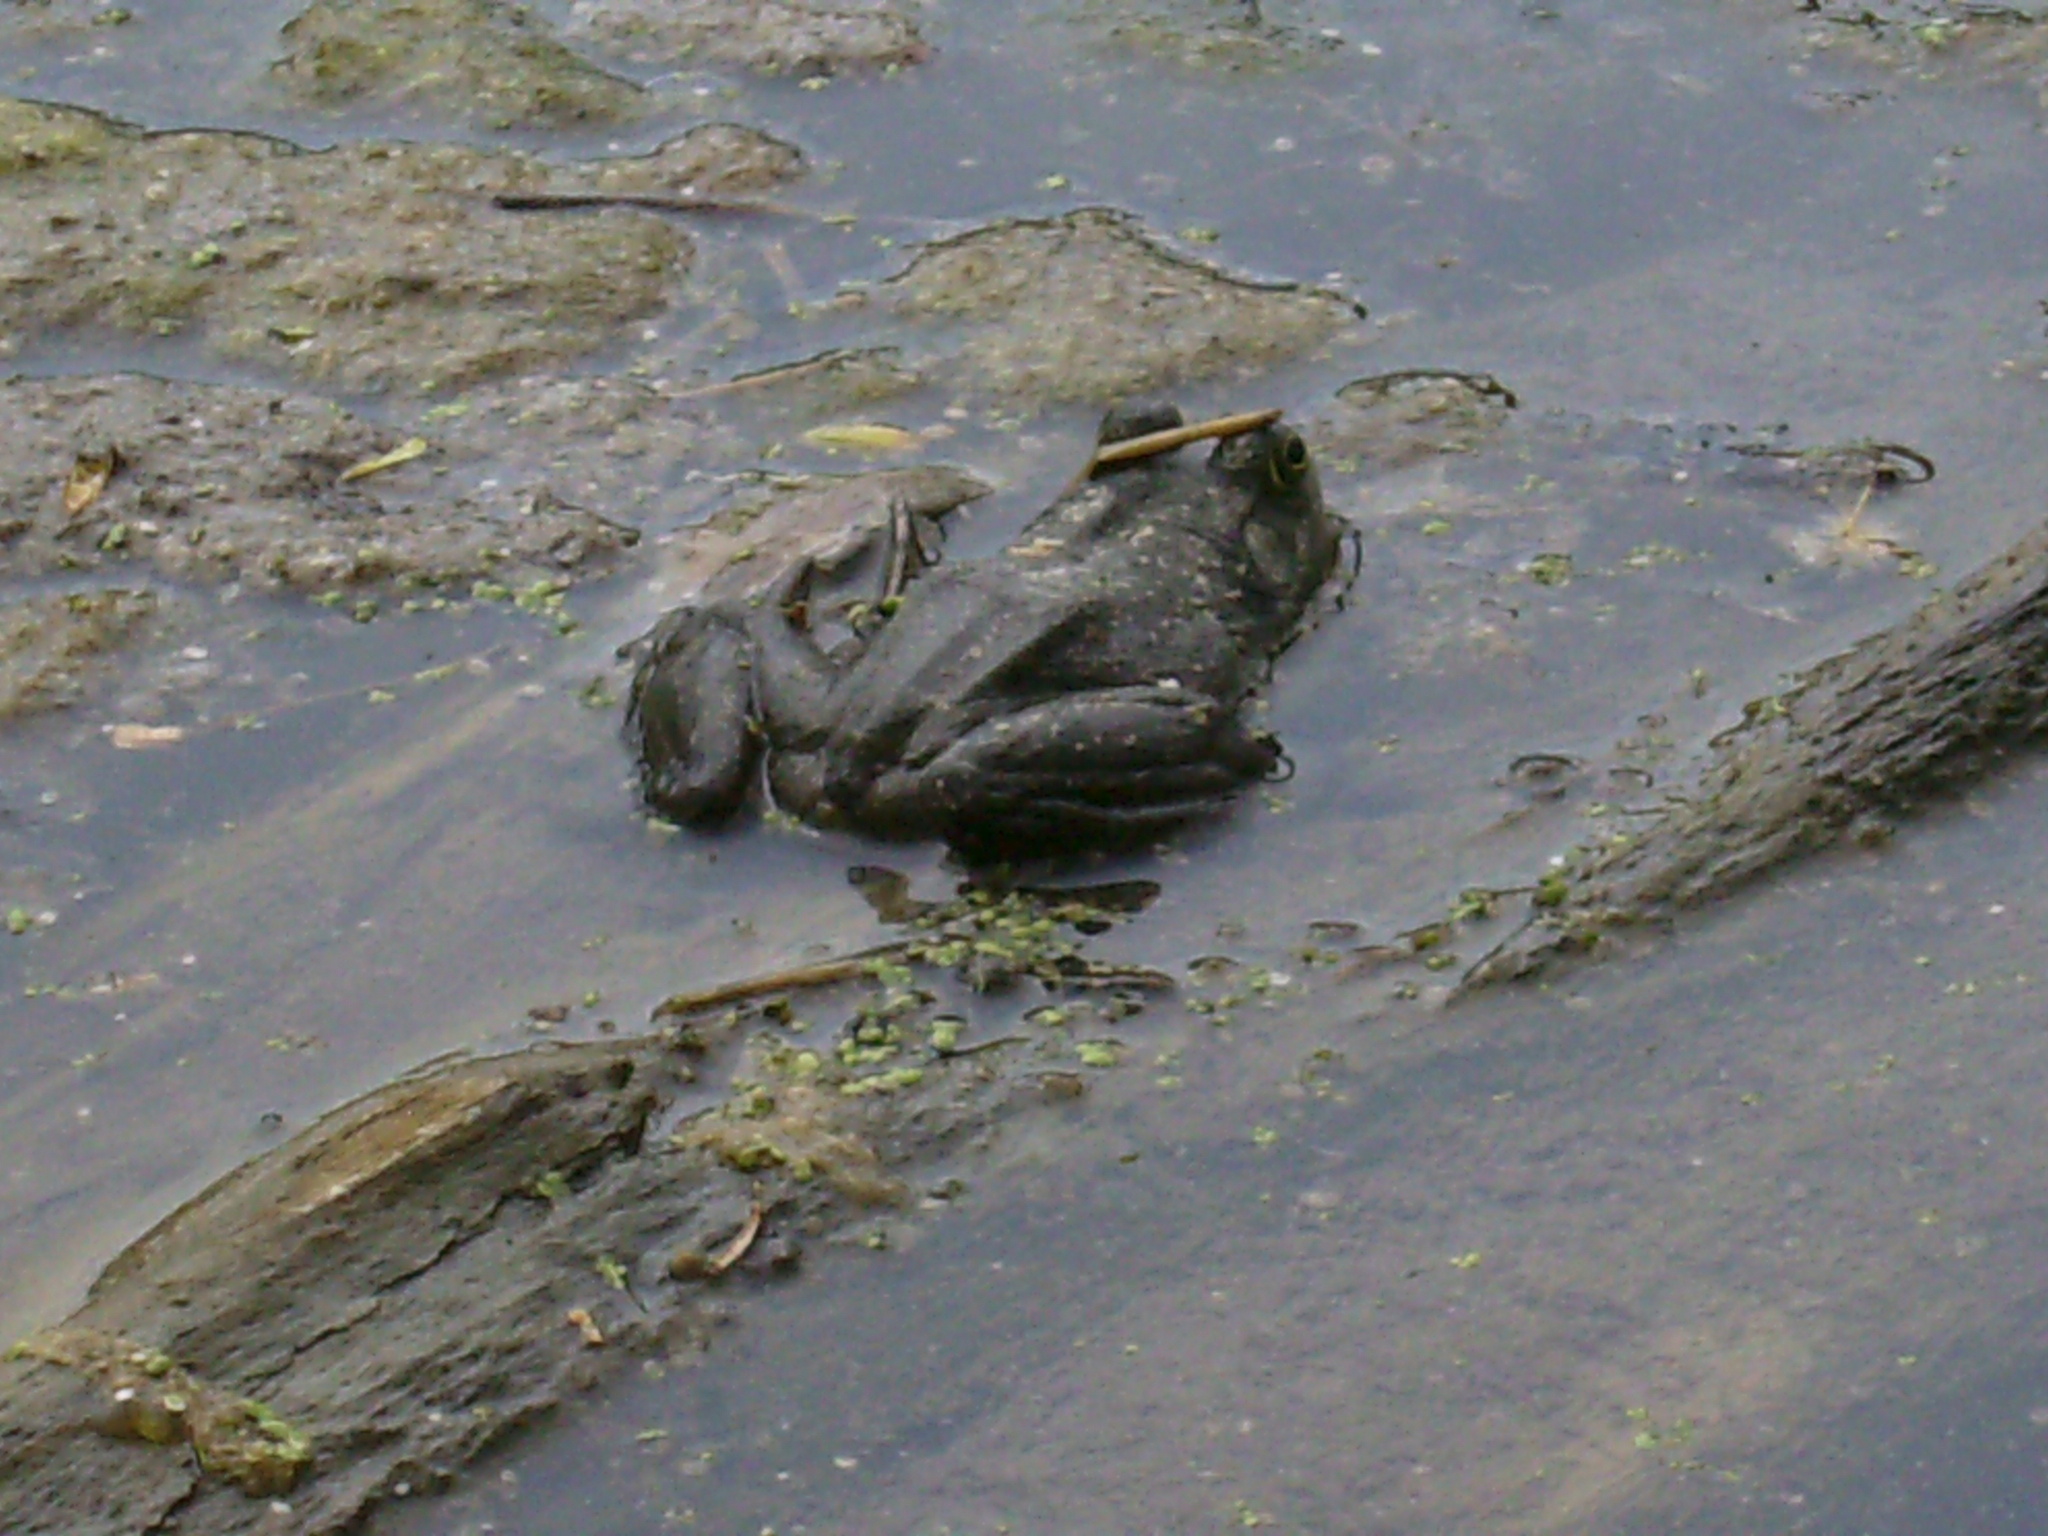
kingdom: Animalia
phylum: Chordata
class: Amphibia
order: Anura
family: Ranidae
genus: Lithobates
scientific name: Lithobates catesbeianus
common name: American bullfrog
